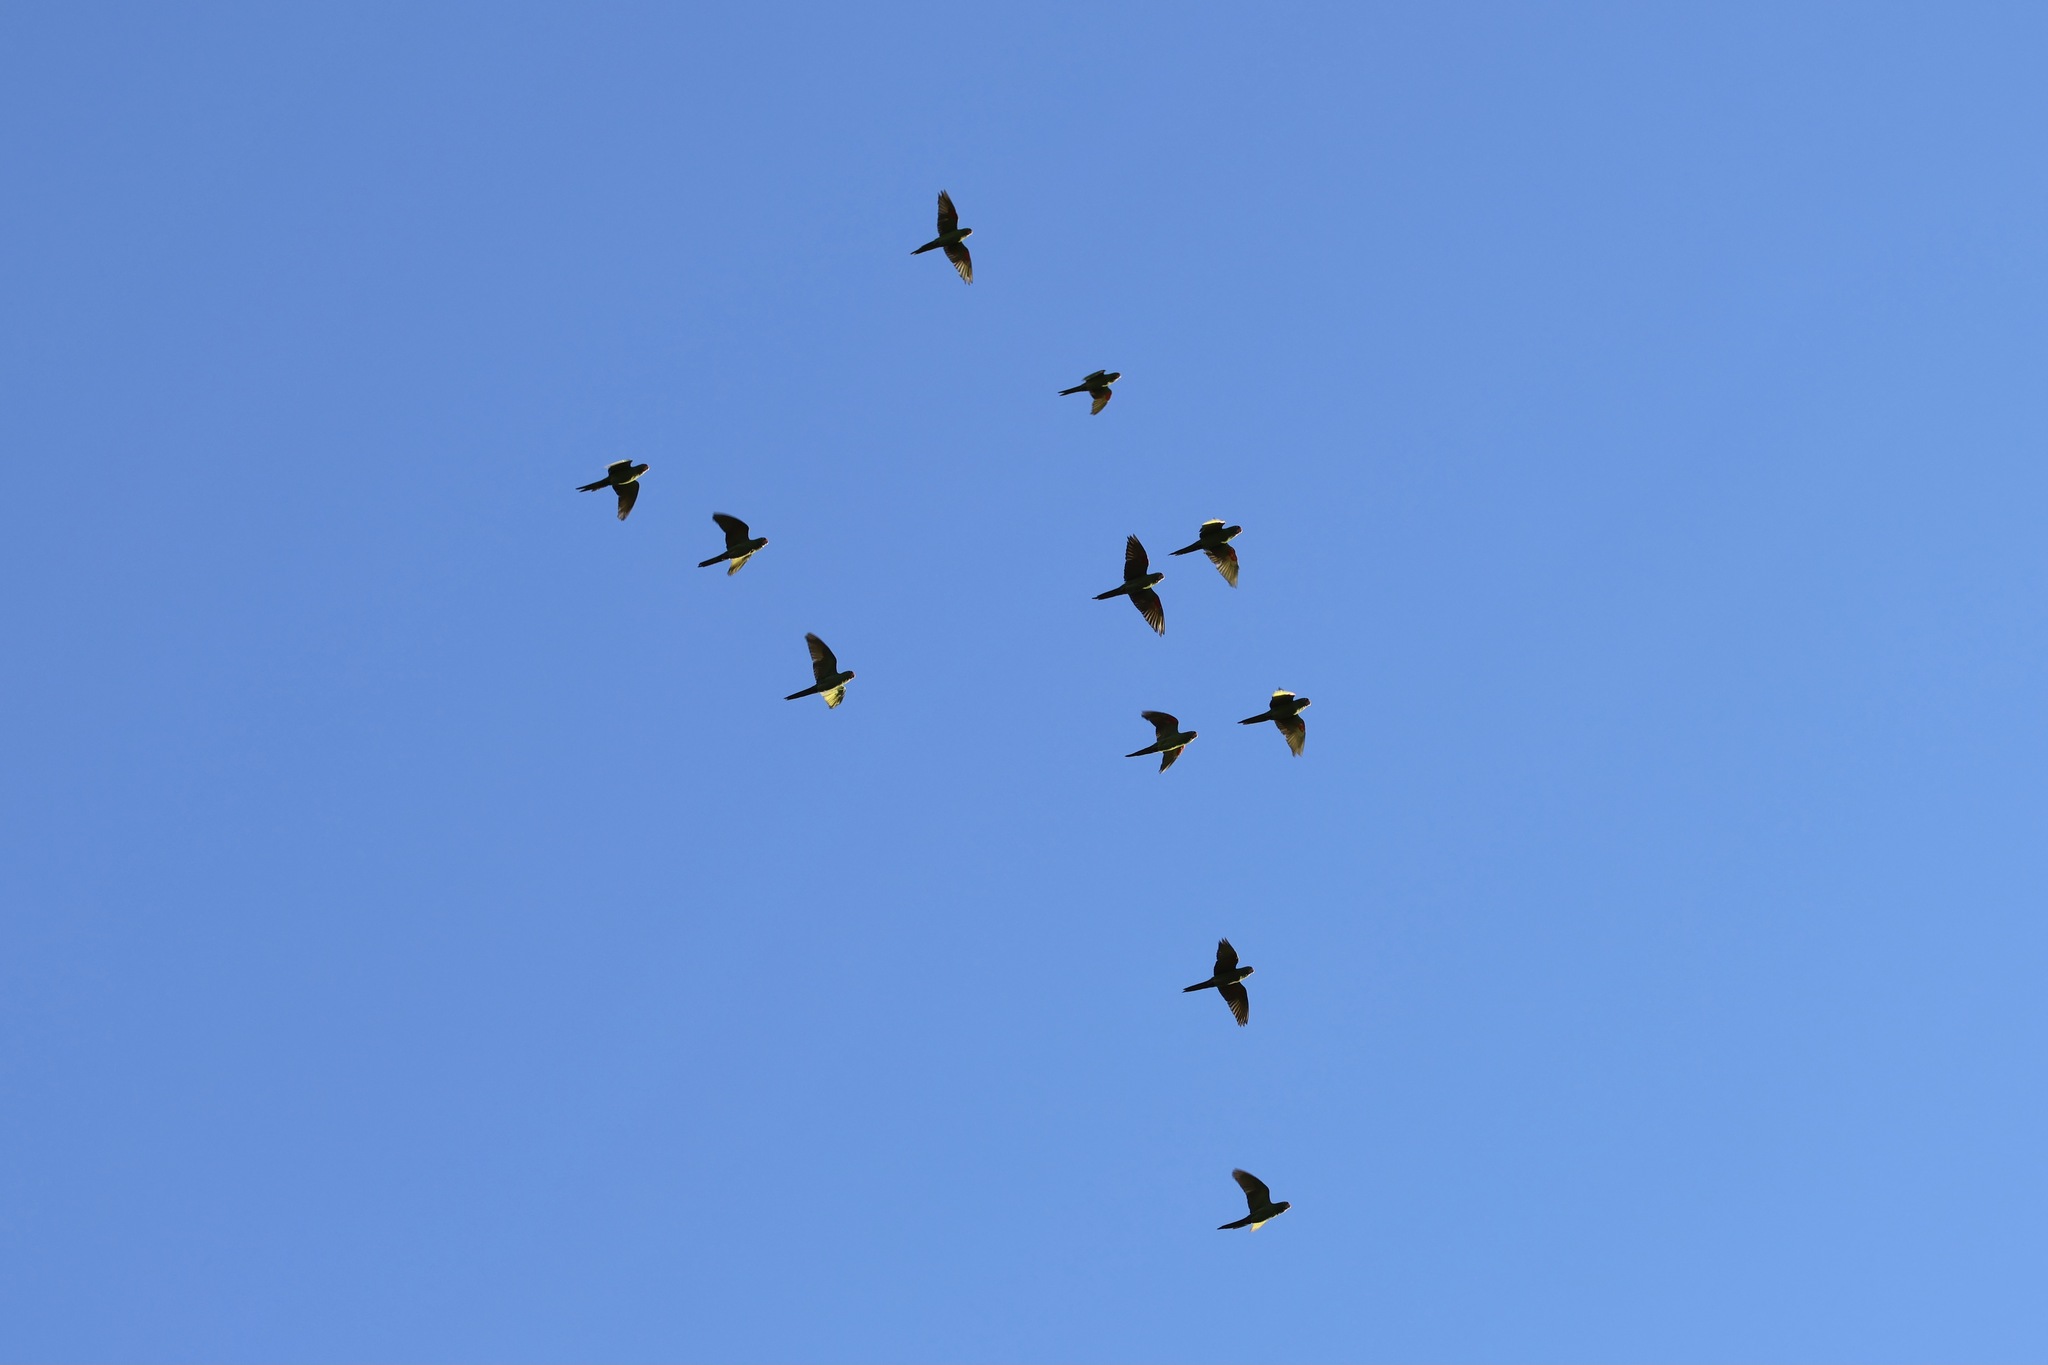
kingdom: Animalia
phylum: Chordata
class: Aves
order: Psittaciformes
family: Psittacidae
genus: Aratinga
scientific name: Aratinga finschi
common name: Crimson-fronted parakeet
